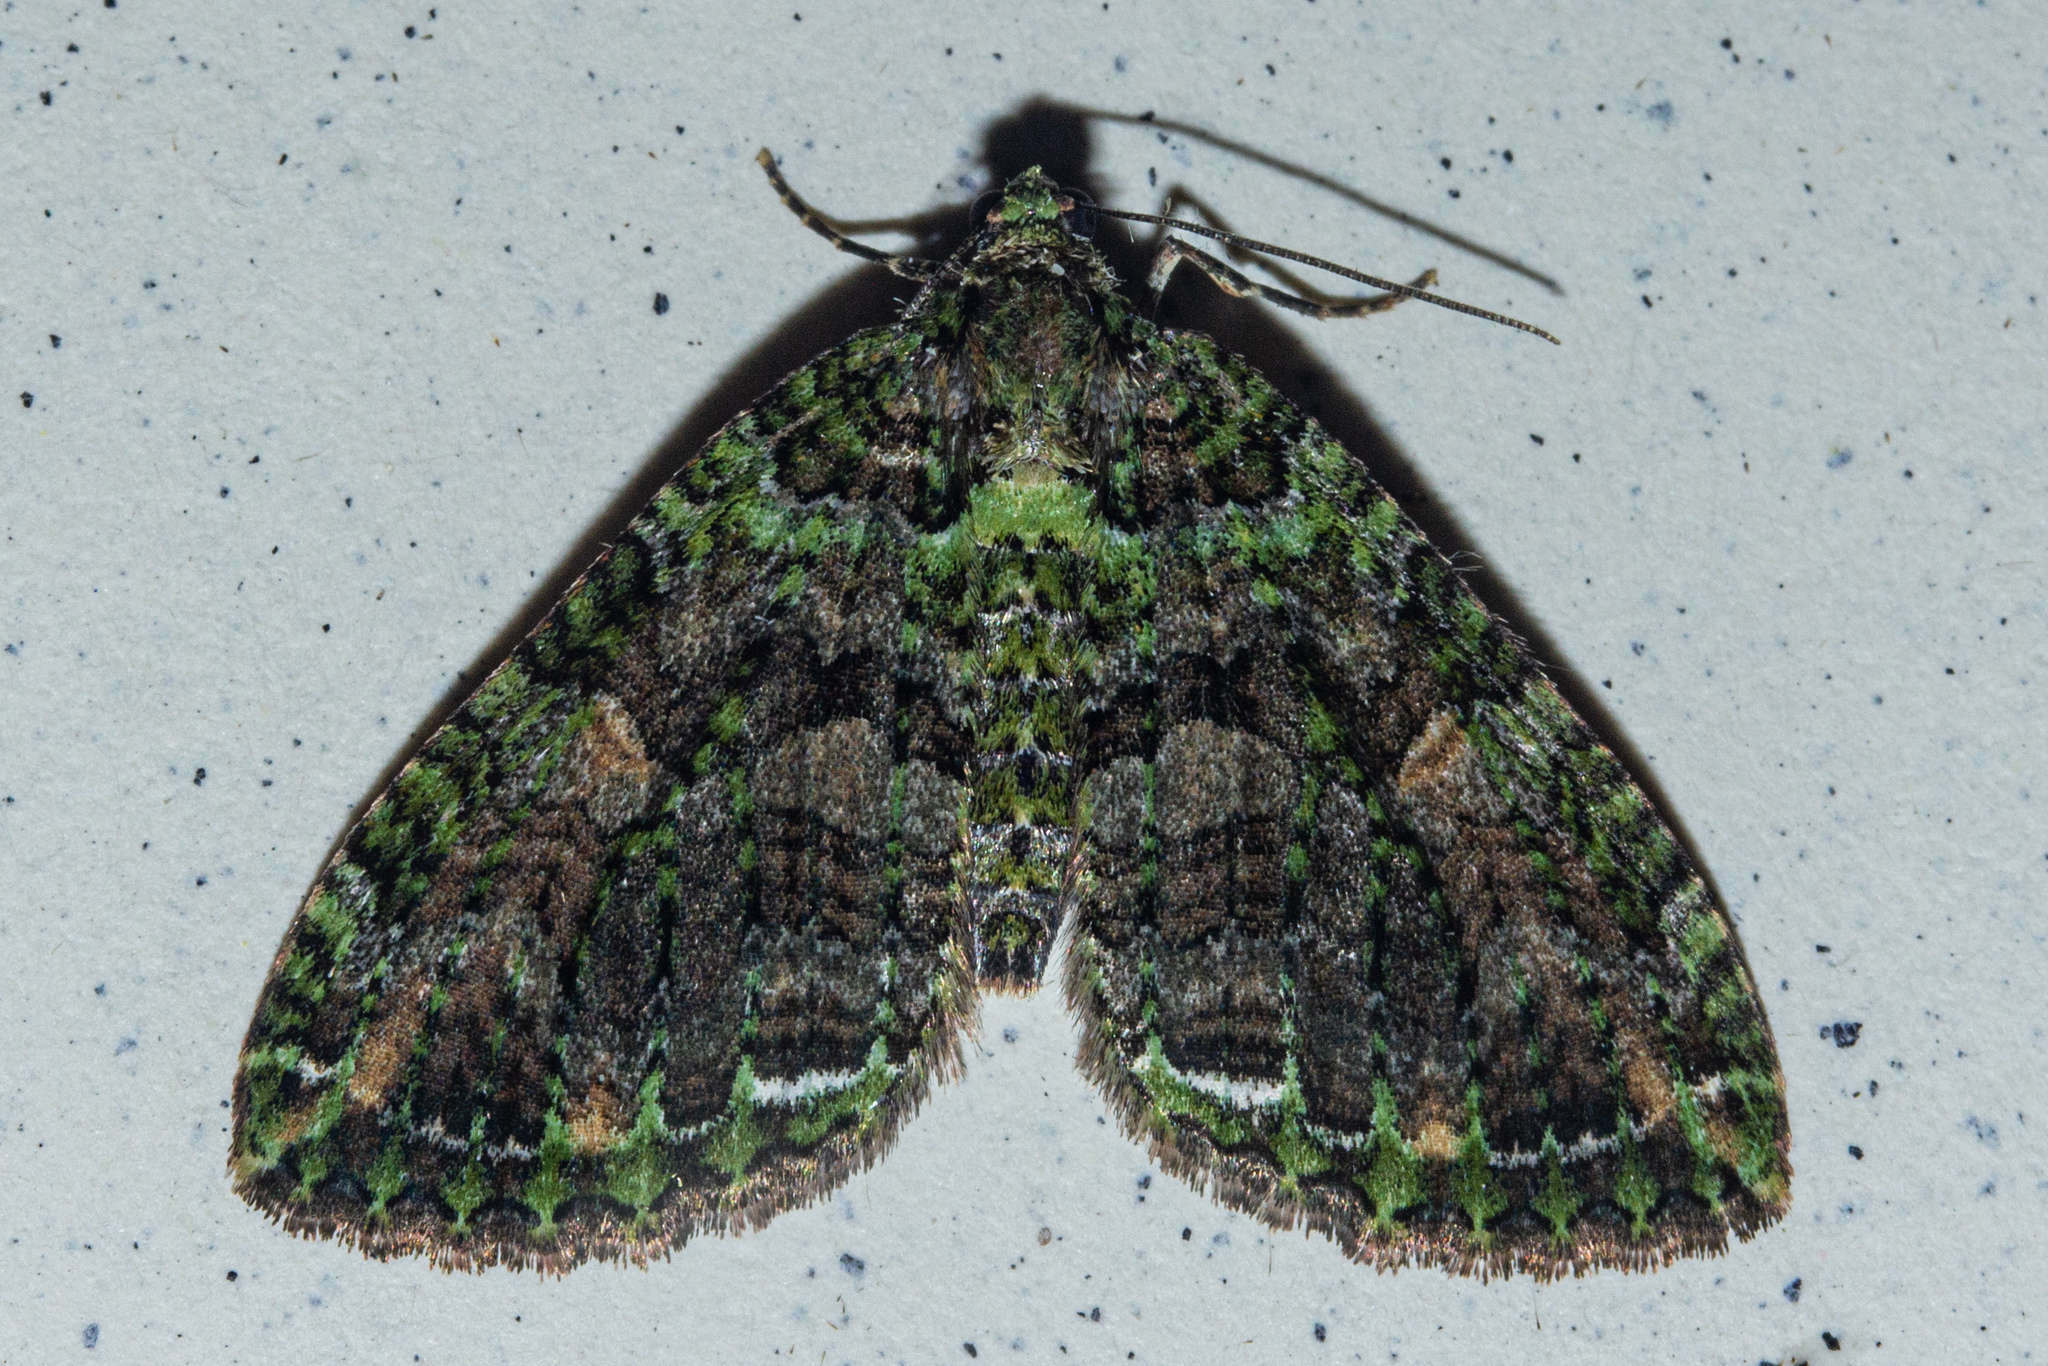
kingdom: Animalia
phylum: Arthropoda
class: Insecta
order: Lepidoptera
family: Geometridae
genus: Austrocidaria
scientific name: Austrocidaria similata
